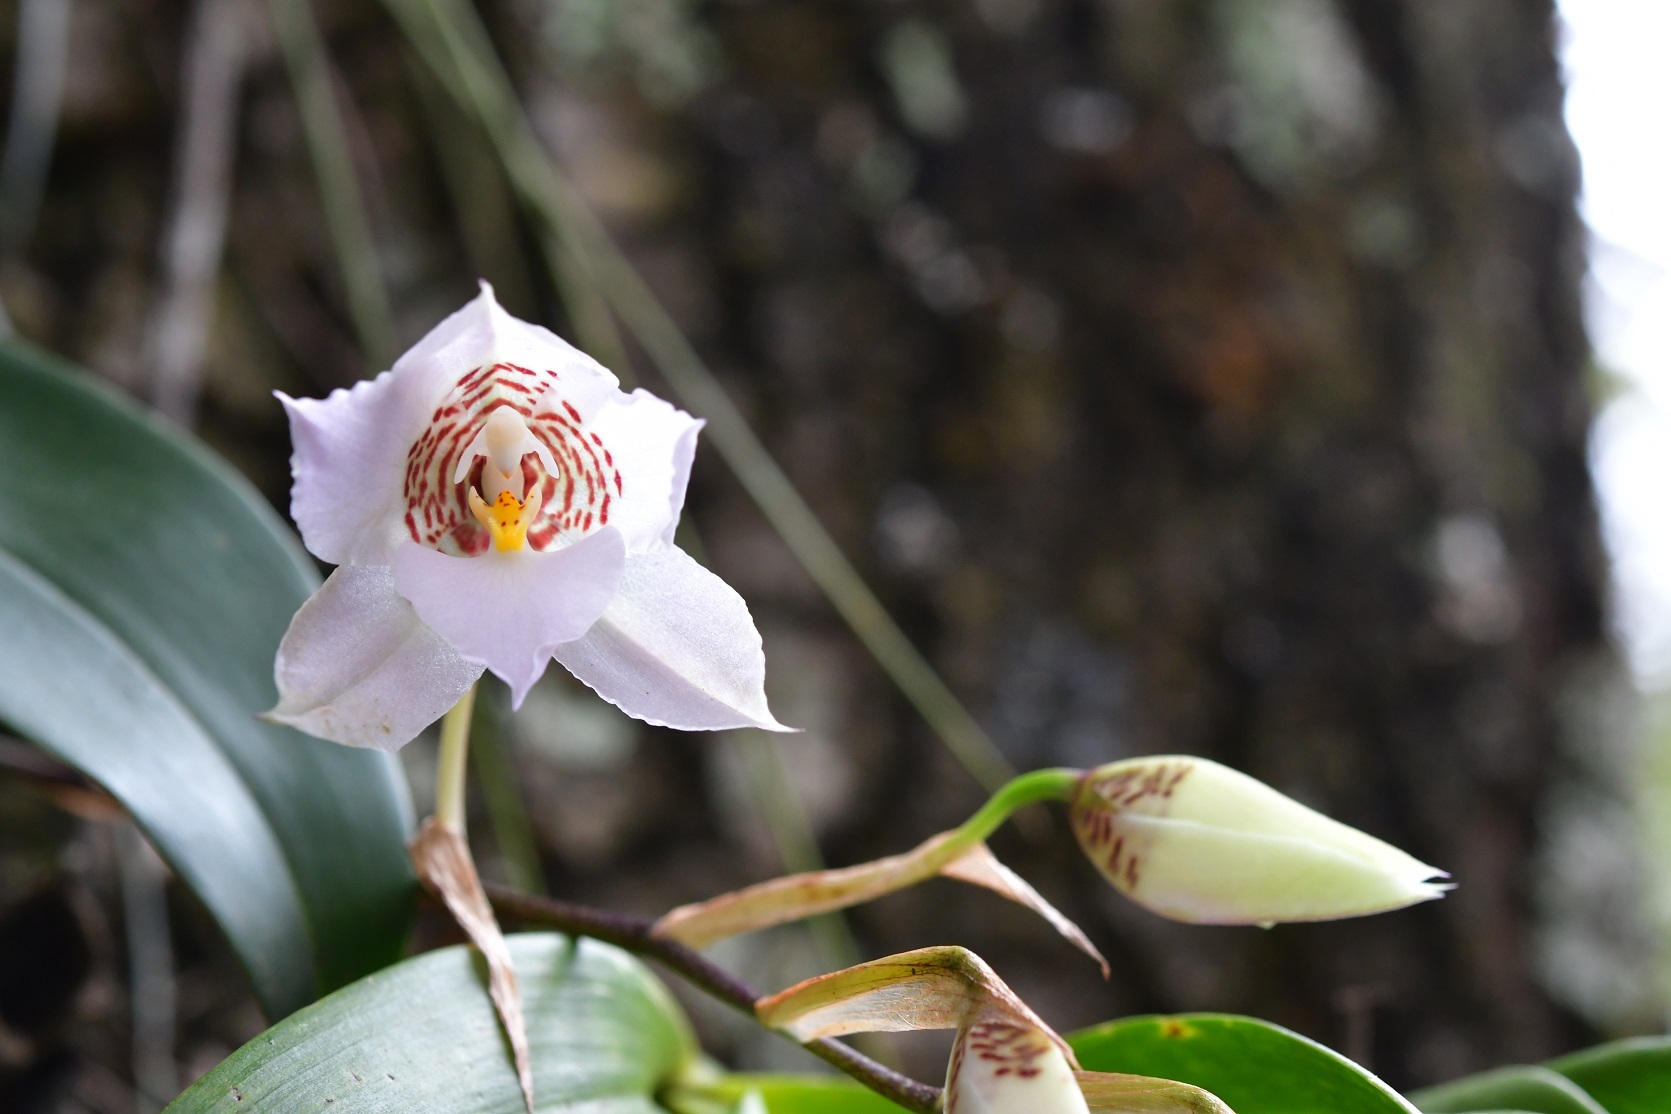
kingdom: Plantae
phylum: Tracheophyta
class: Liliopsida
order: Asparagales
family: Orchidaceae
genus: Rhynchostele
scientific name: Rhynchostele cervantesii
